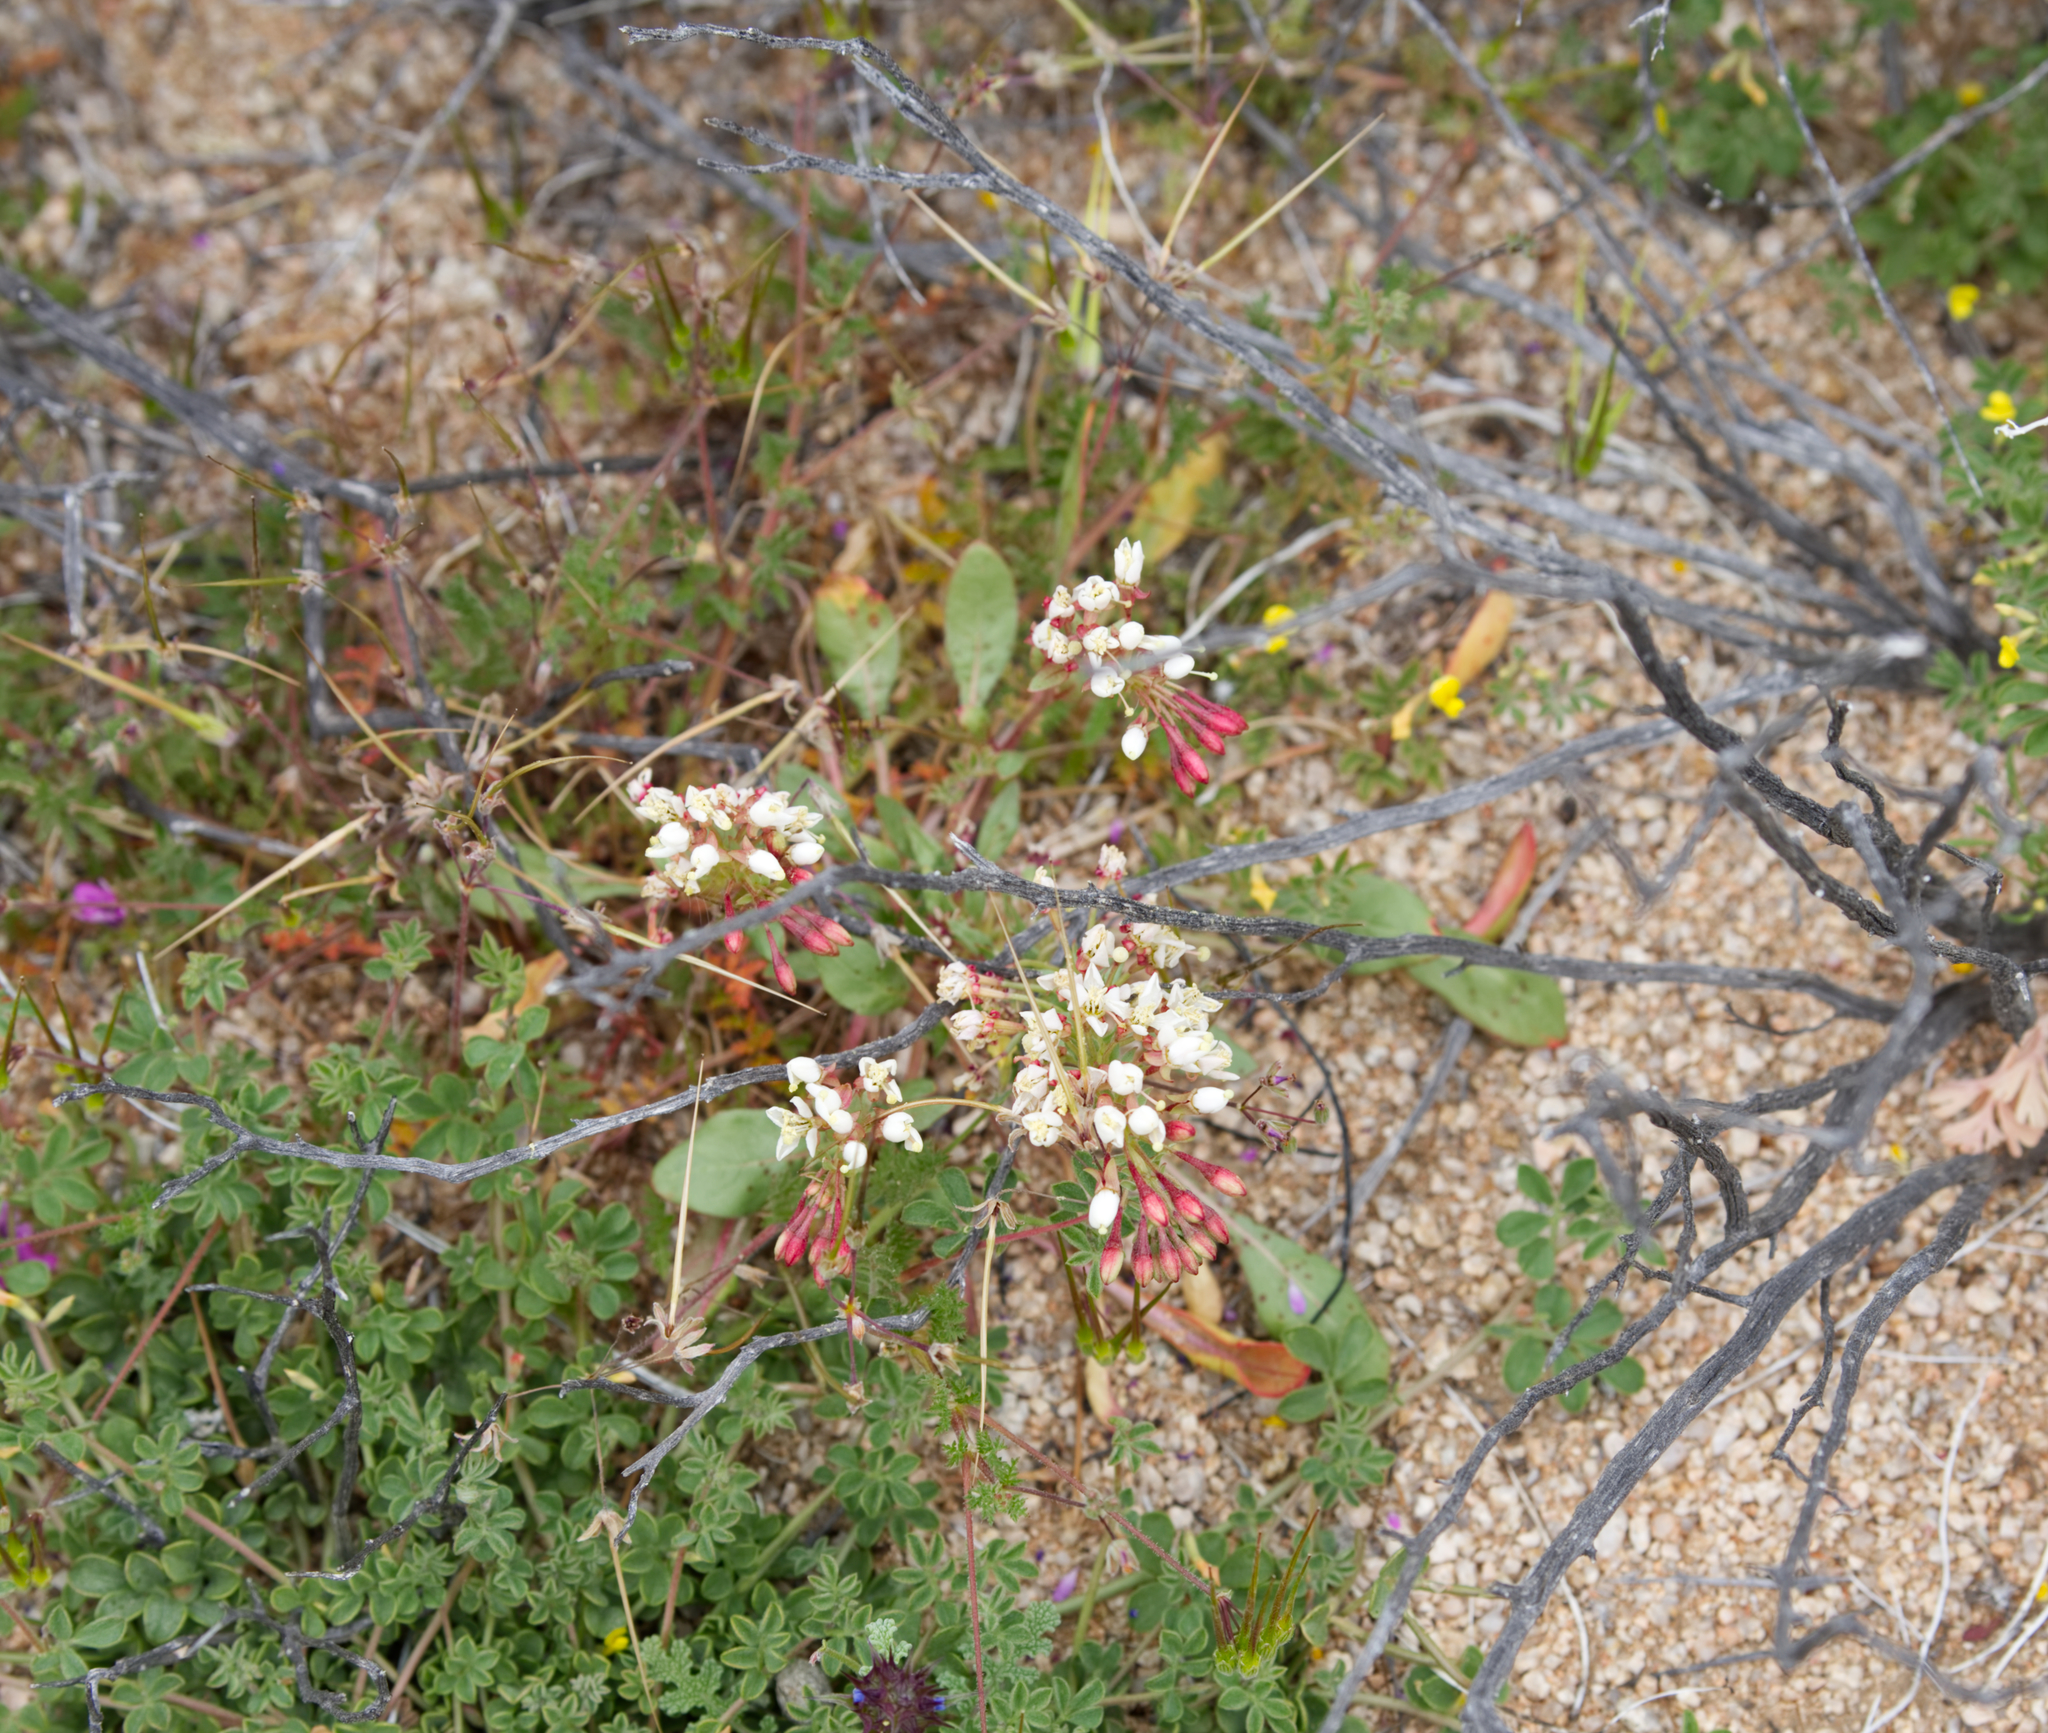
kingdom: Plantae
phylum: Tracheophyta
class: Magnoliopsida
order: Myrtales
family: Onagraceae
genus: Eremothera
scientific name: Eremothera boothii
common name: Booth's evening primrose
